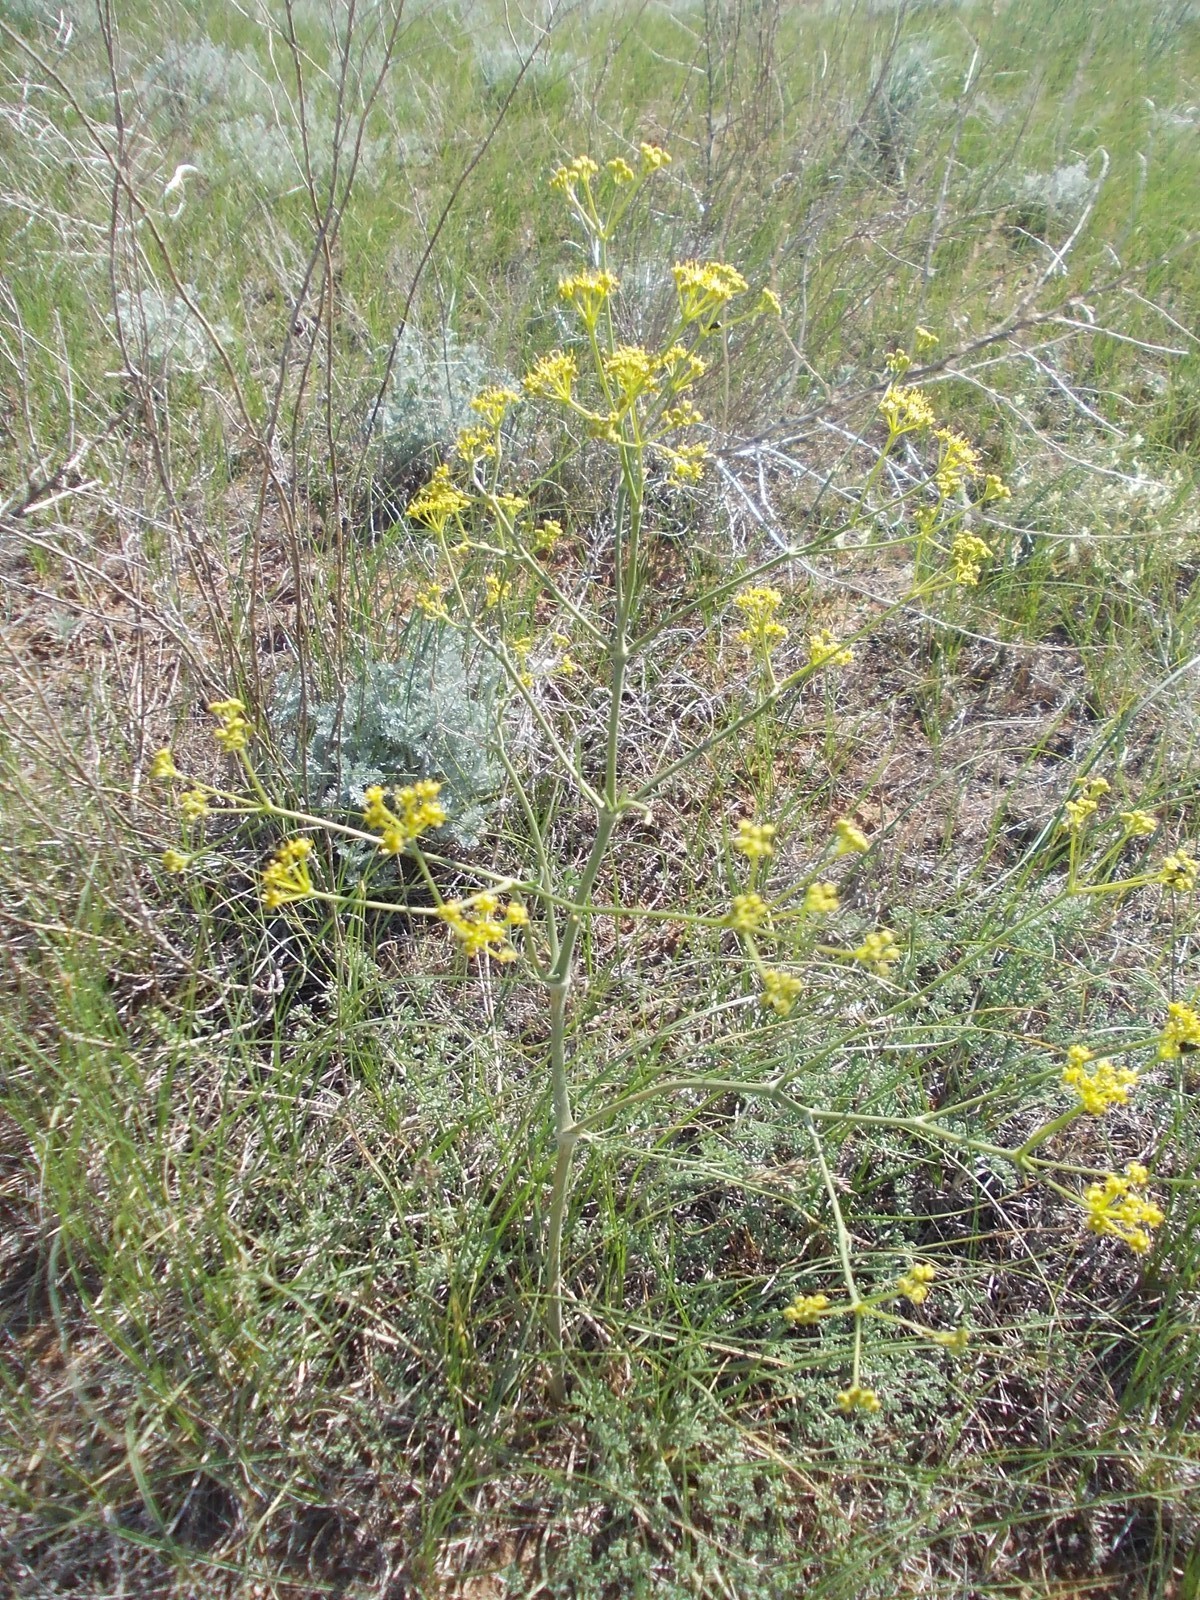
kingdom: Plantae
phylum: Tracheophyta
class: Magnoliopsida
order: Apiales
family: Apiaceae
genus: Prangos
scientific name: Prangos odontalgica
